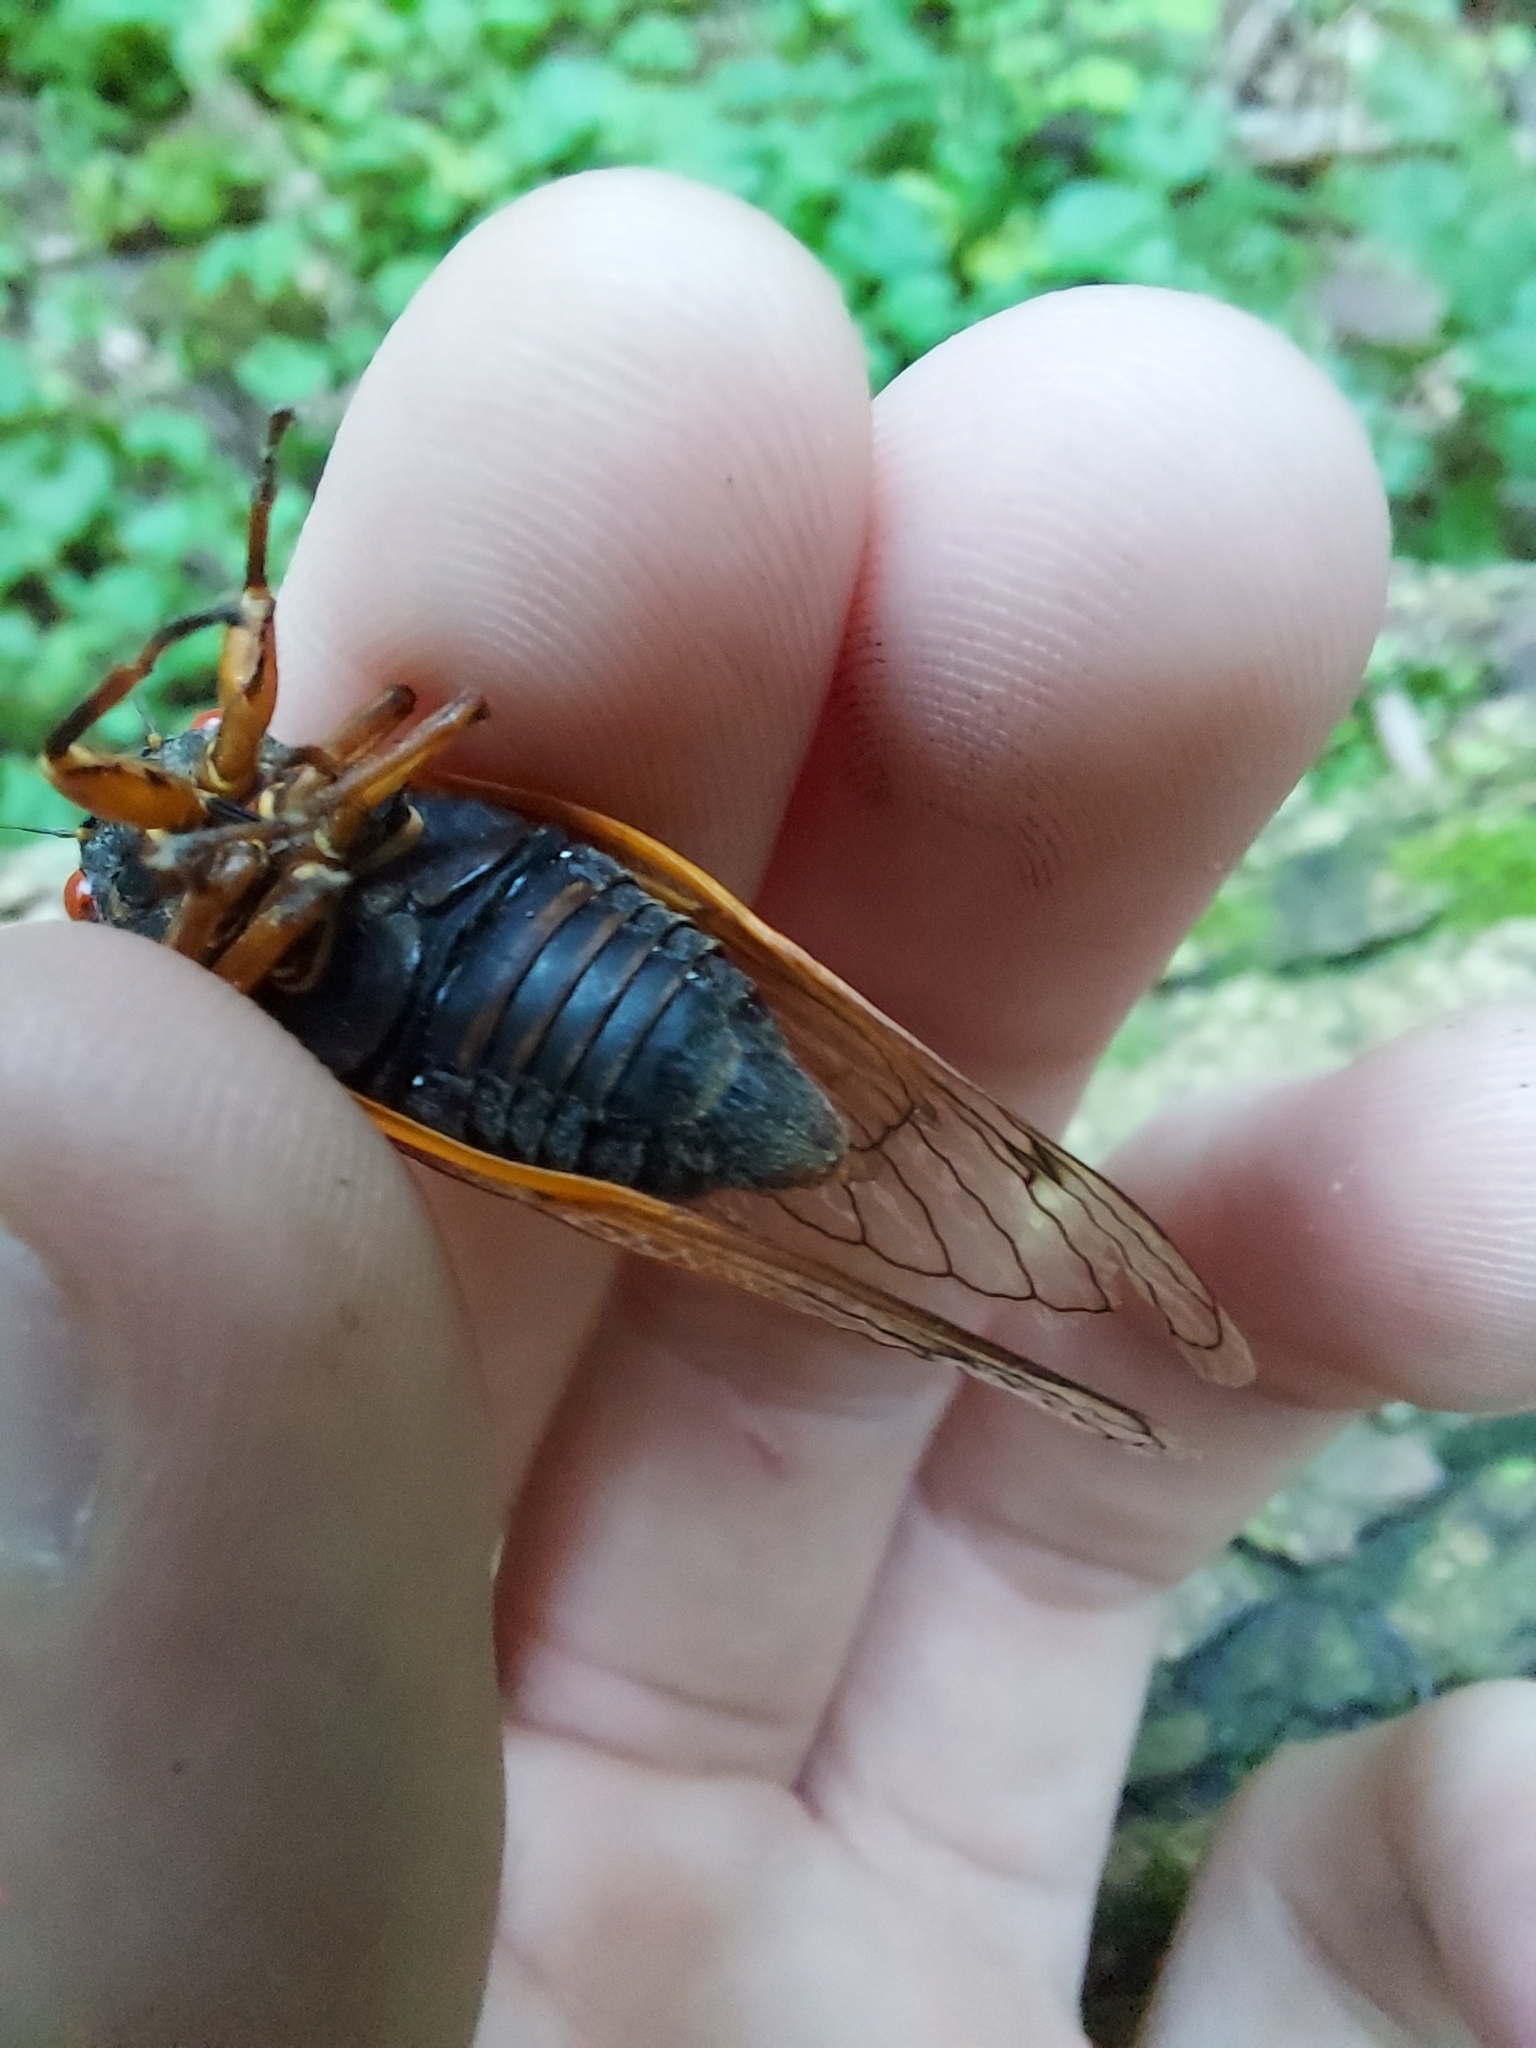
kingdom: Animalia
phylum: Arthropoda
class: Insecta
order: Hemiptera
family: Cicadidae
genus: Magicicada
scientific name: Magicicada septendecula
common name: Decula periodical cicada
